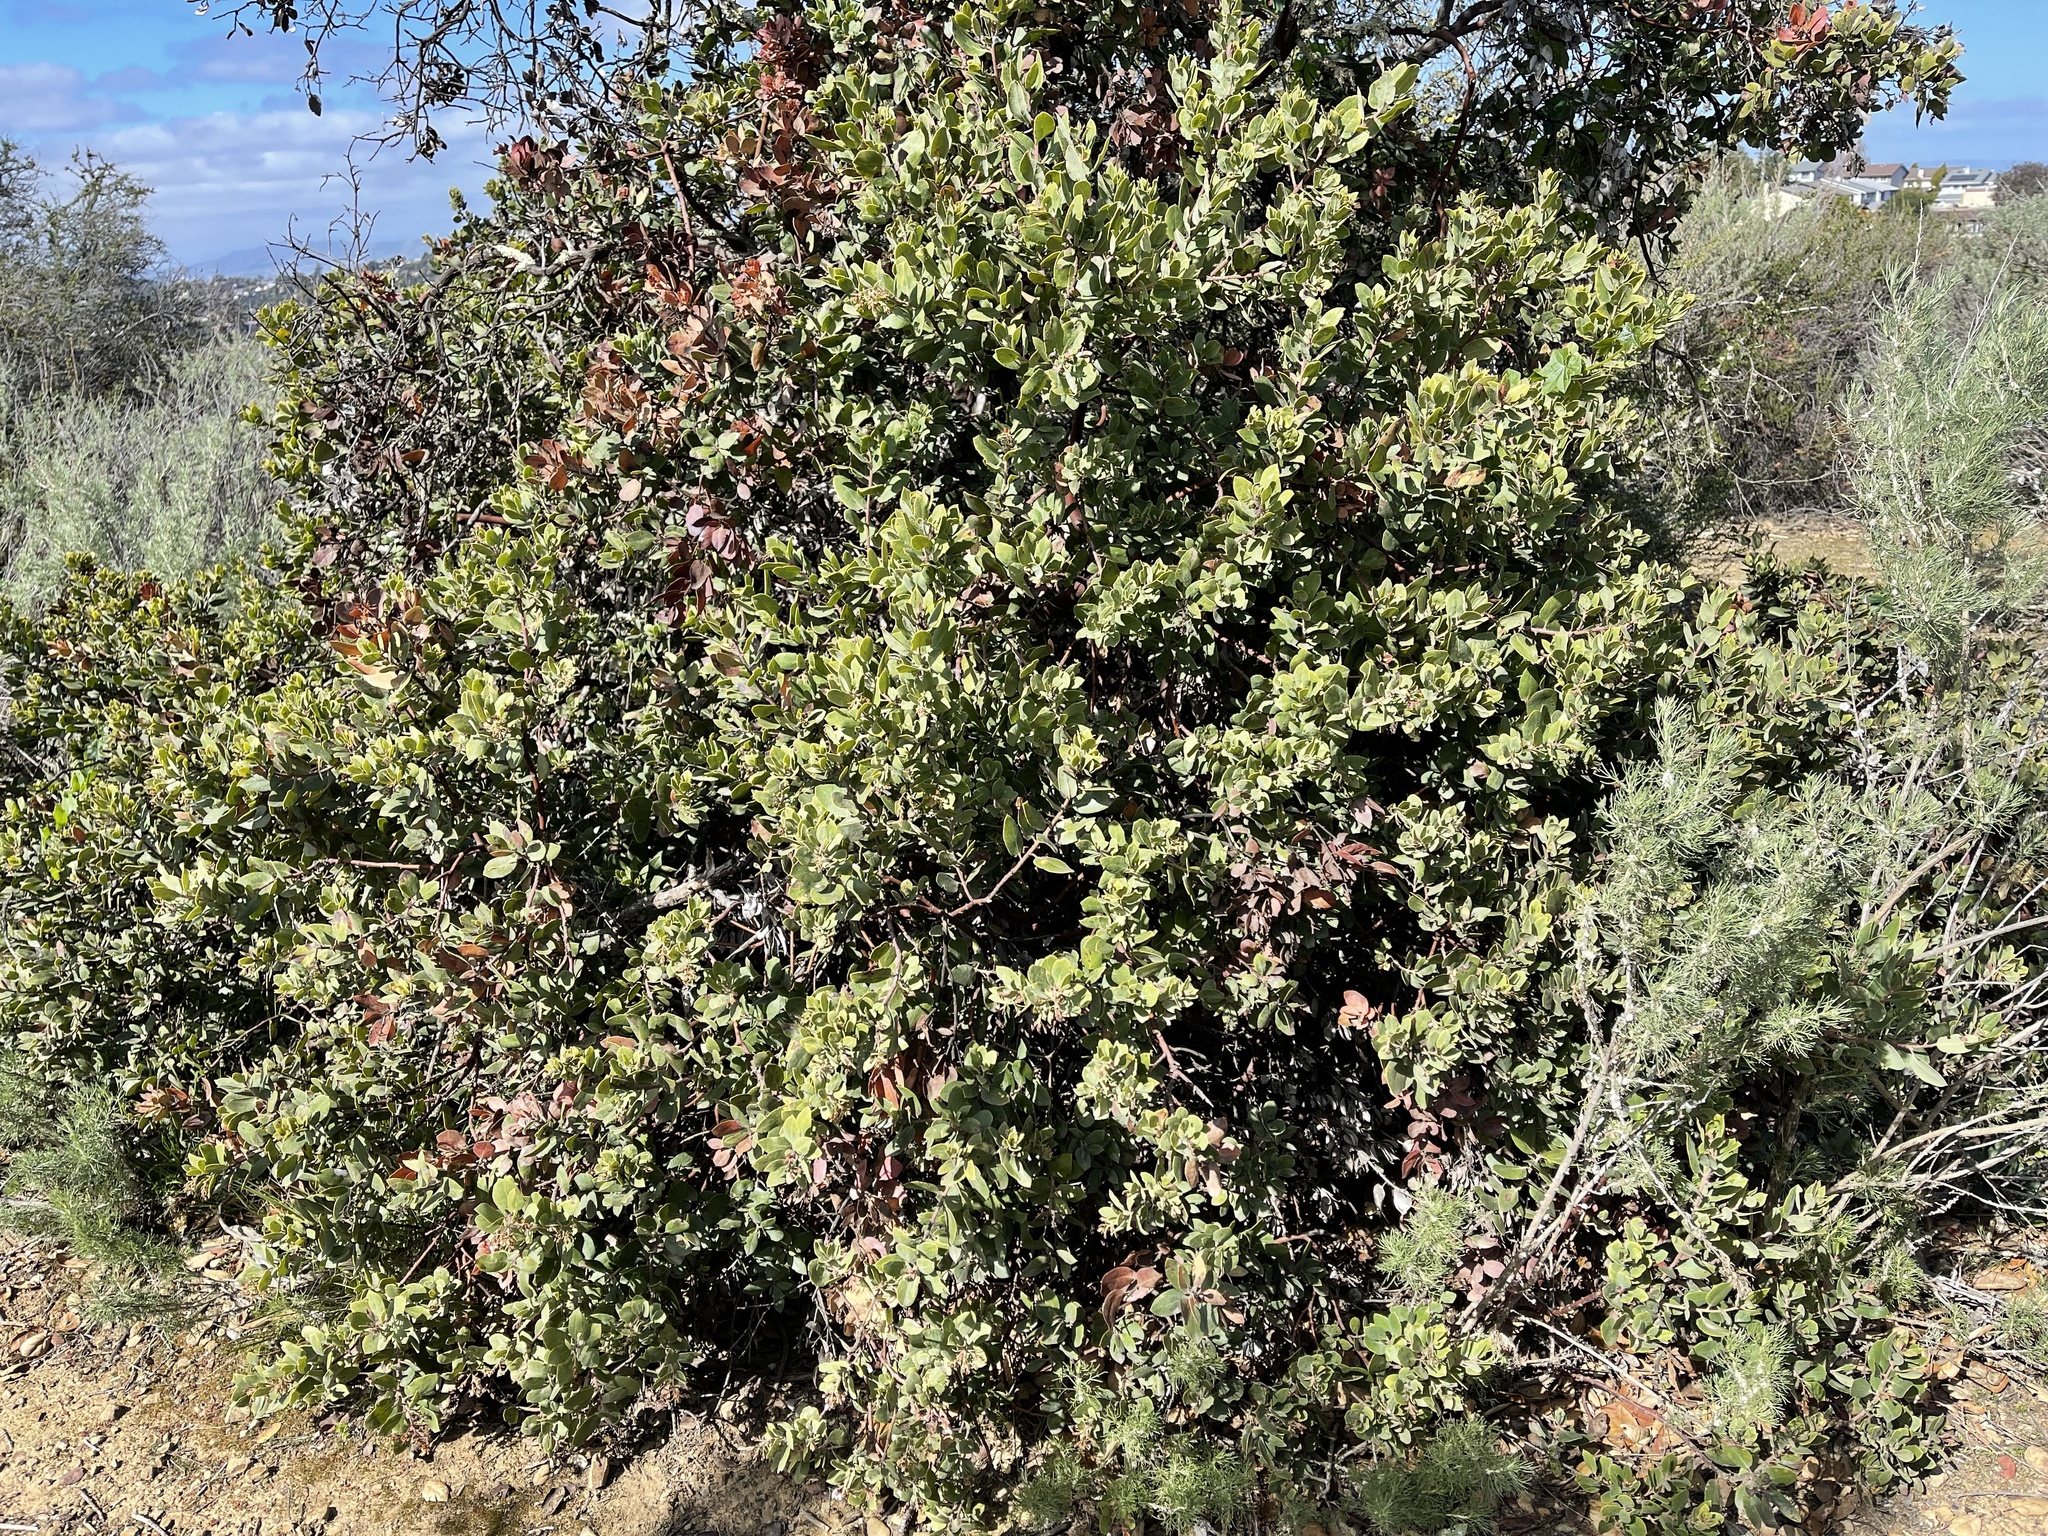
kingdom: Plantae
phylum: Tracheophyta
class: Magnoliopsida
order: Ericales
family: Ericaceae
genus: Arctostaphylos
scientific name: Arctostaphylos crustacea
